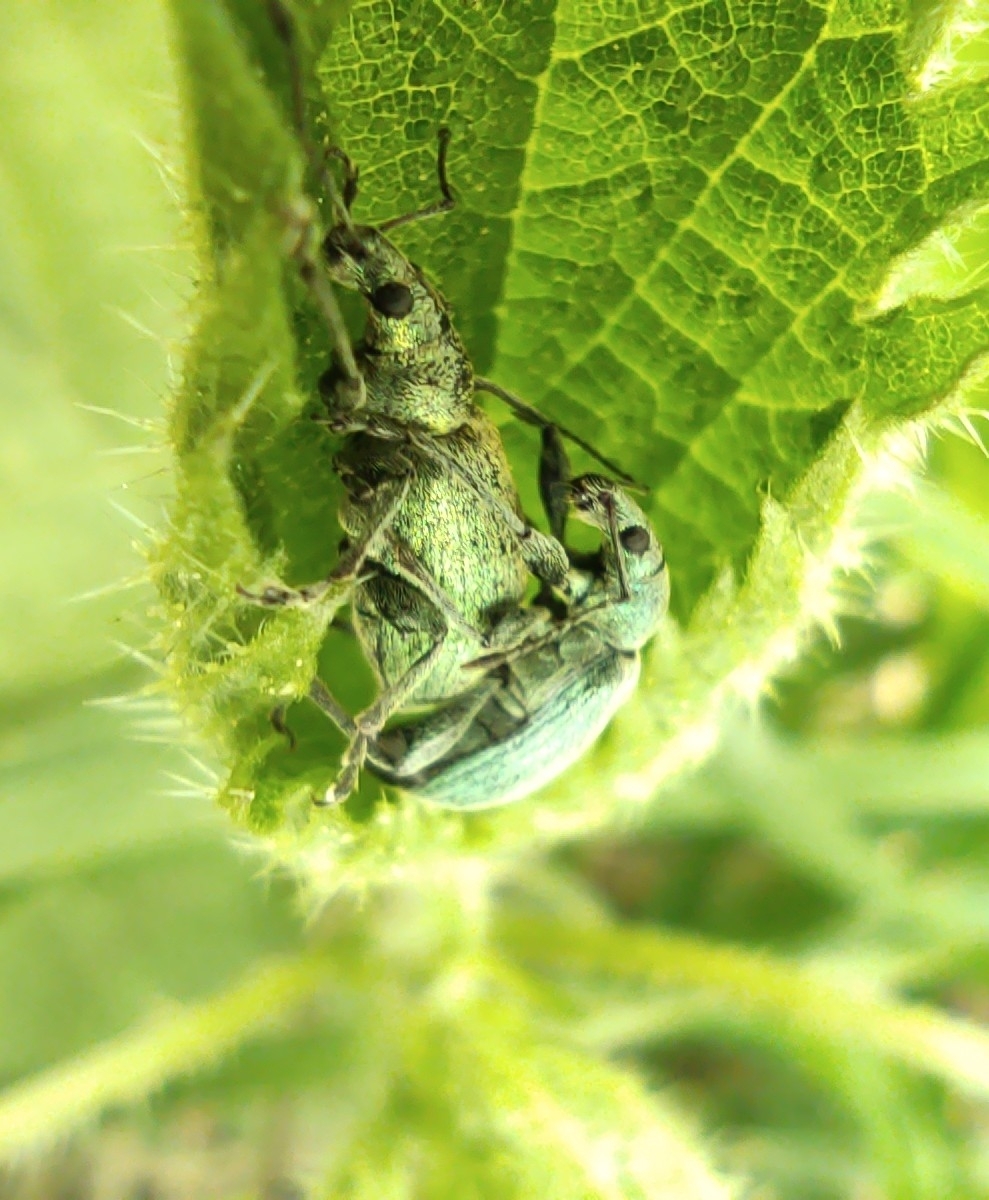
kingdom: Animalia
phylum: Arthropoda
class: Insecta
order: Coleoptera
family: Curculionidae
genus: Phyllobius
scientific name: Phyllobius pomaceus
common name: Green nettle weevil
